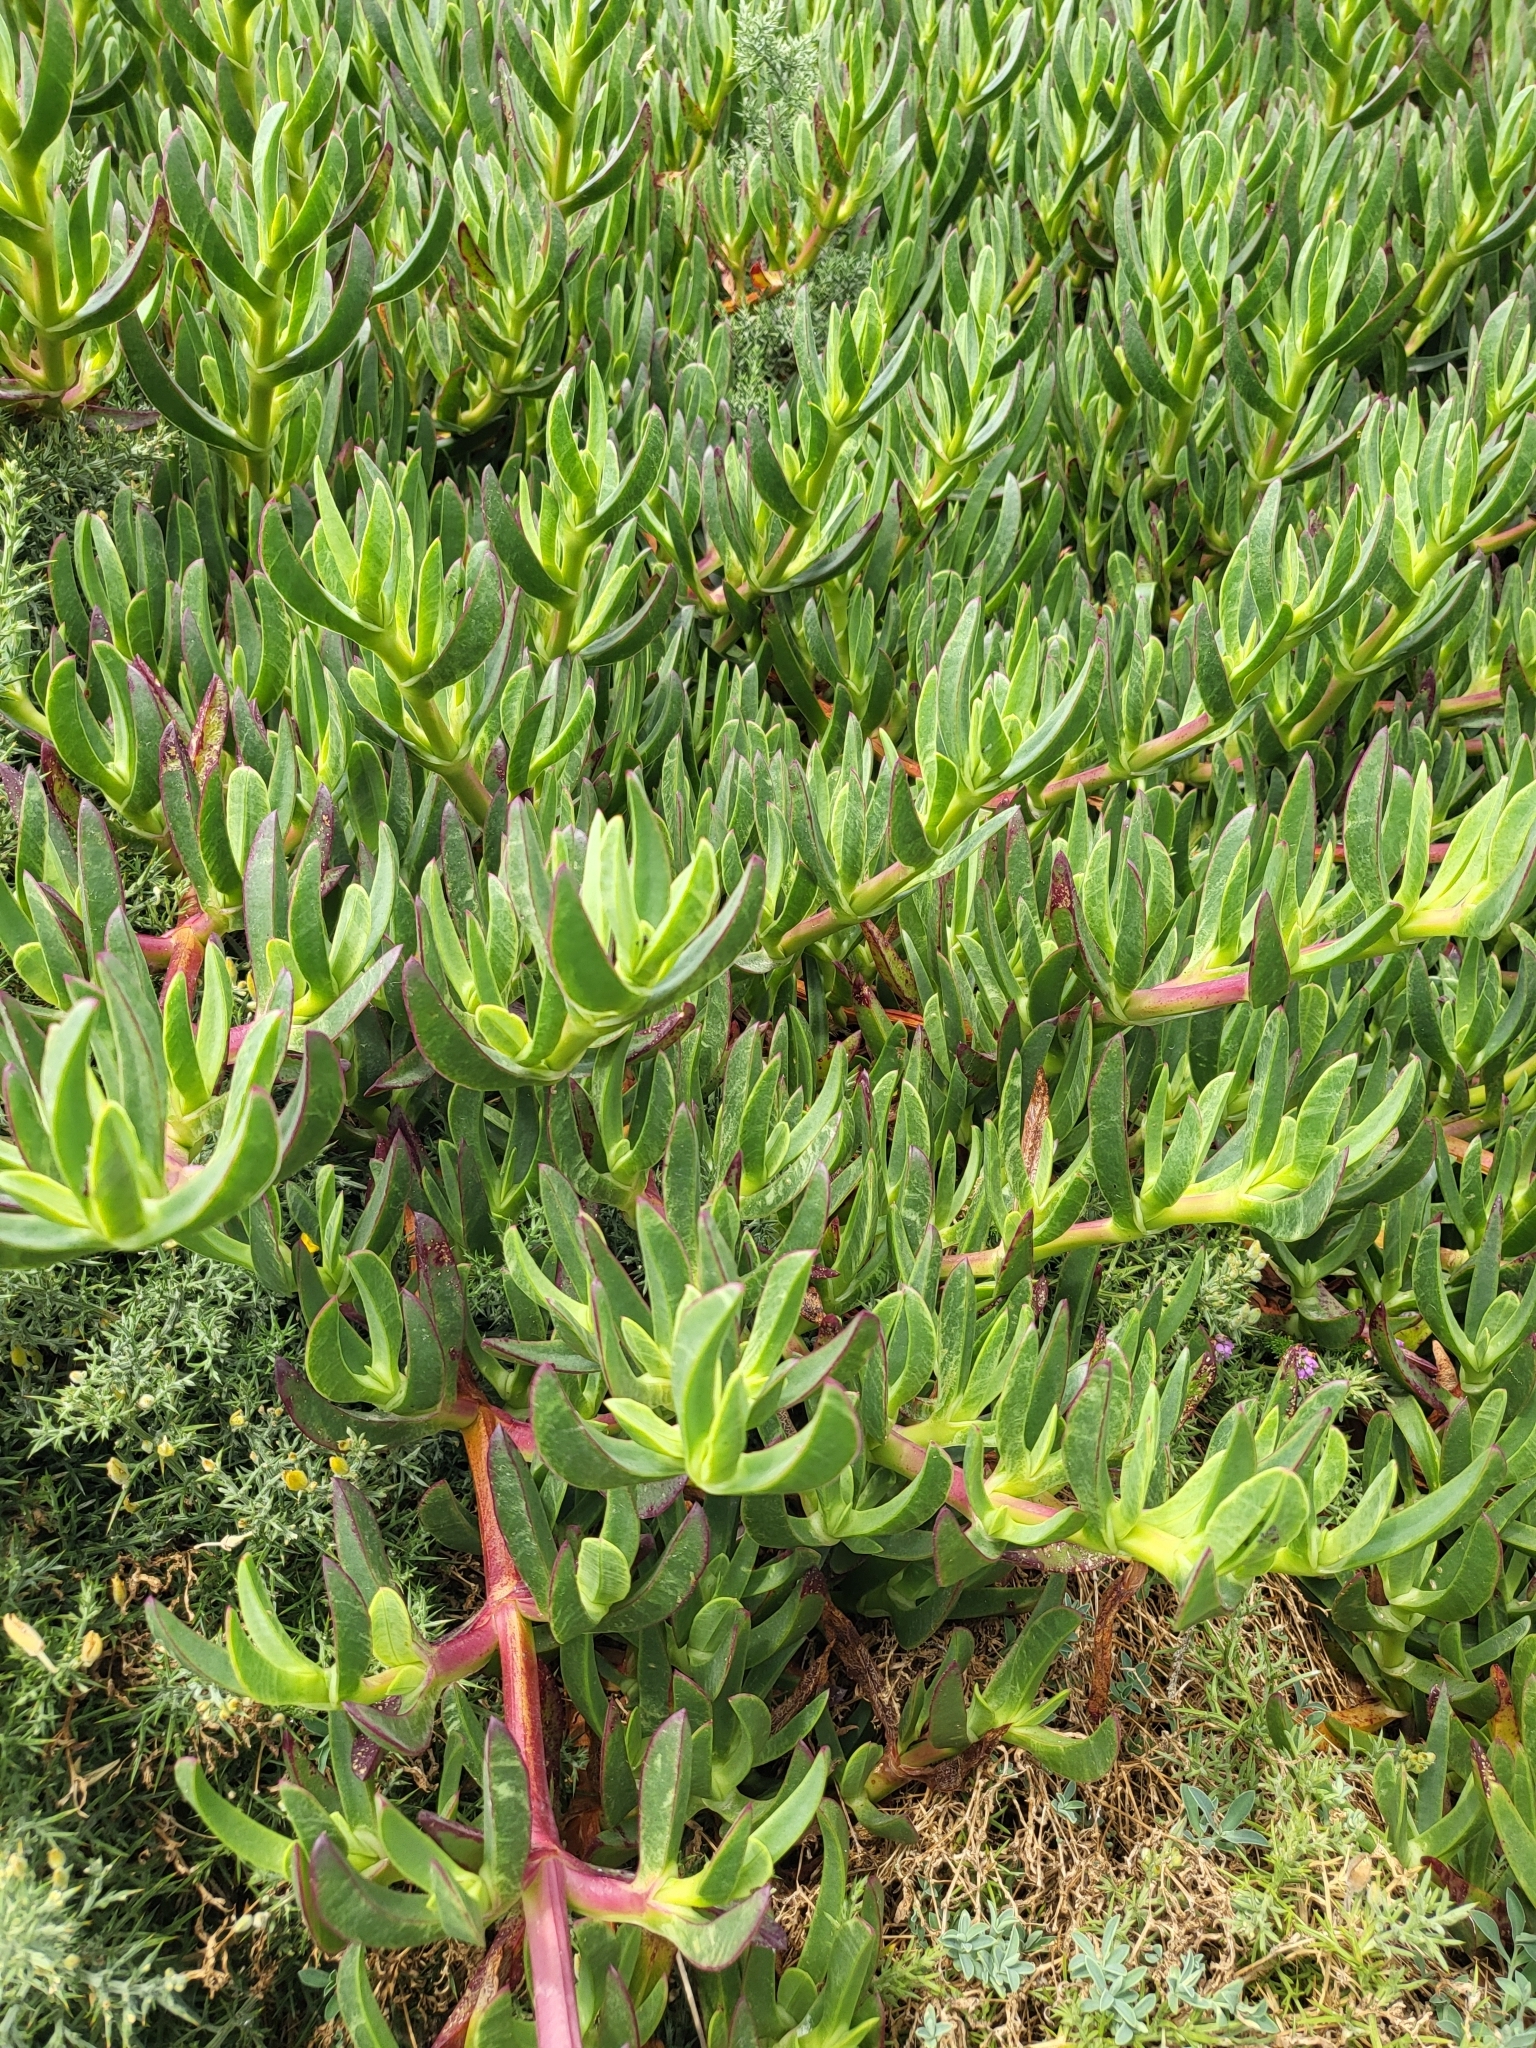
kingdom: Plantae
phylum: Tracheophyta
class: Magnoliopsida
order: Caryophyllales
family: Aizoaceae
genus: Carpobrotus
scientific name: Carpobrotus edulis
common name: Hottentot-fig
